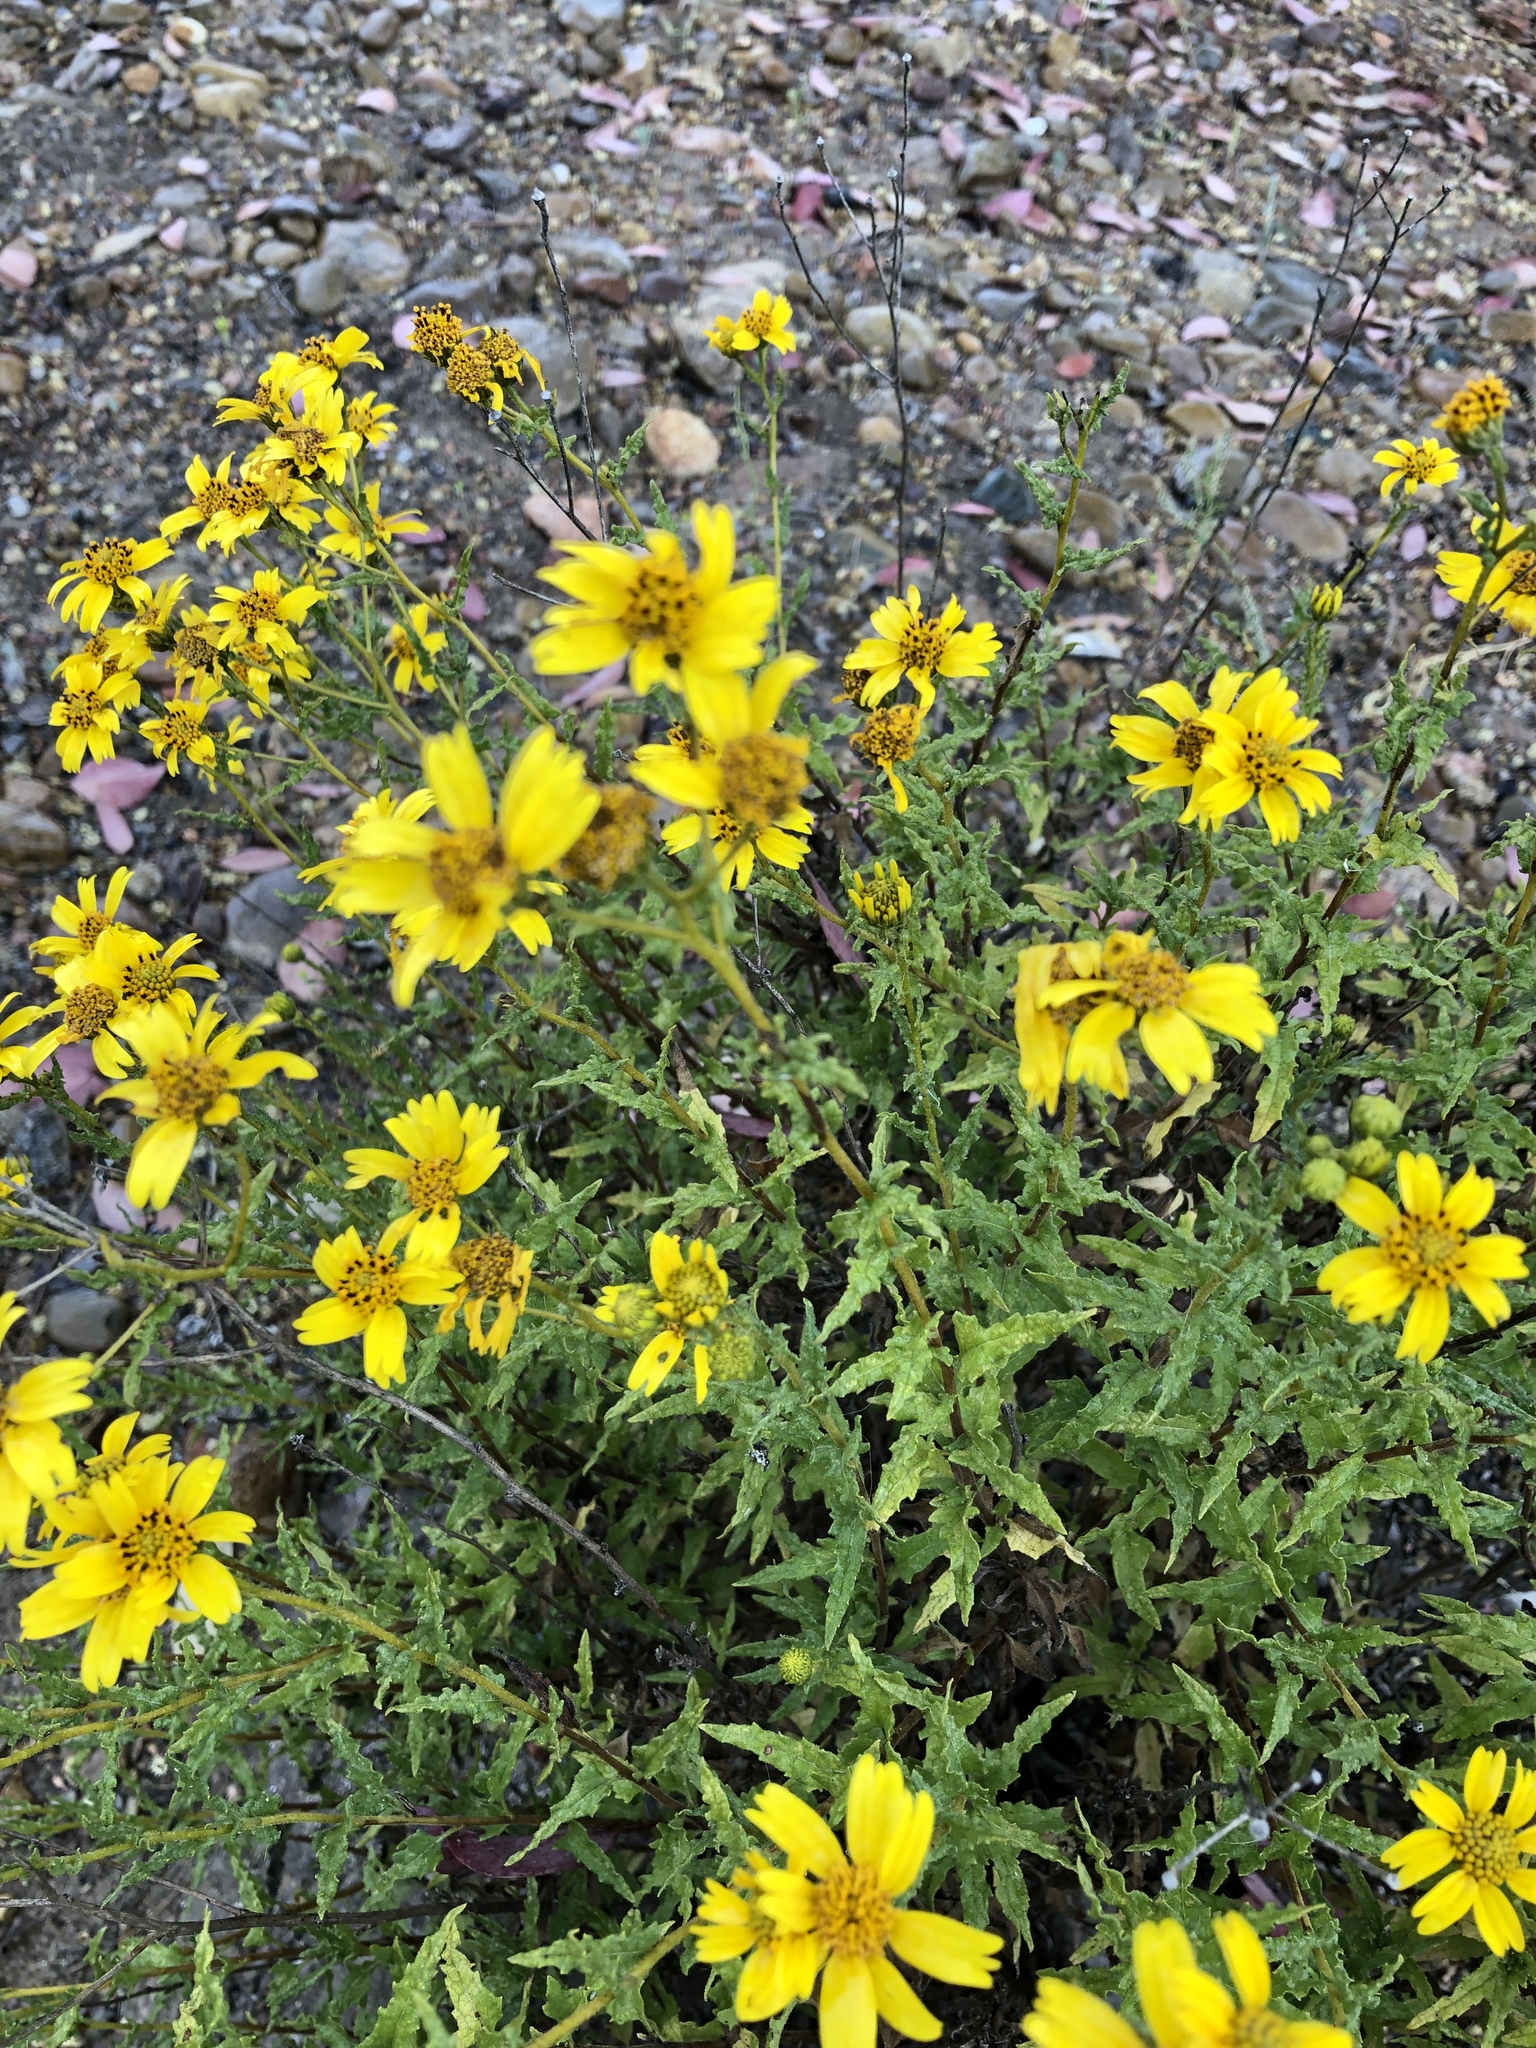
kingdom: Plantae
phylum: Tracheophyta
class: Magnoliopsida
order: Asterales
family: Asteraceae
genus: Bahiopsis
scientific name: Bahiopsis laciniata
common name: San diego county viguiera
